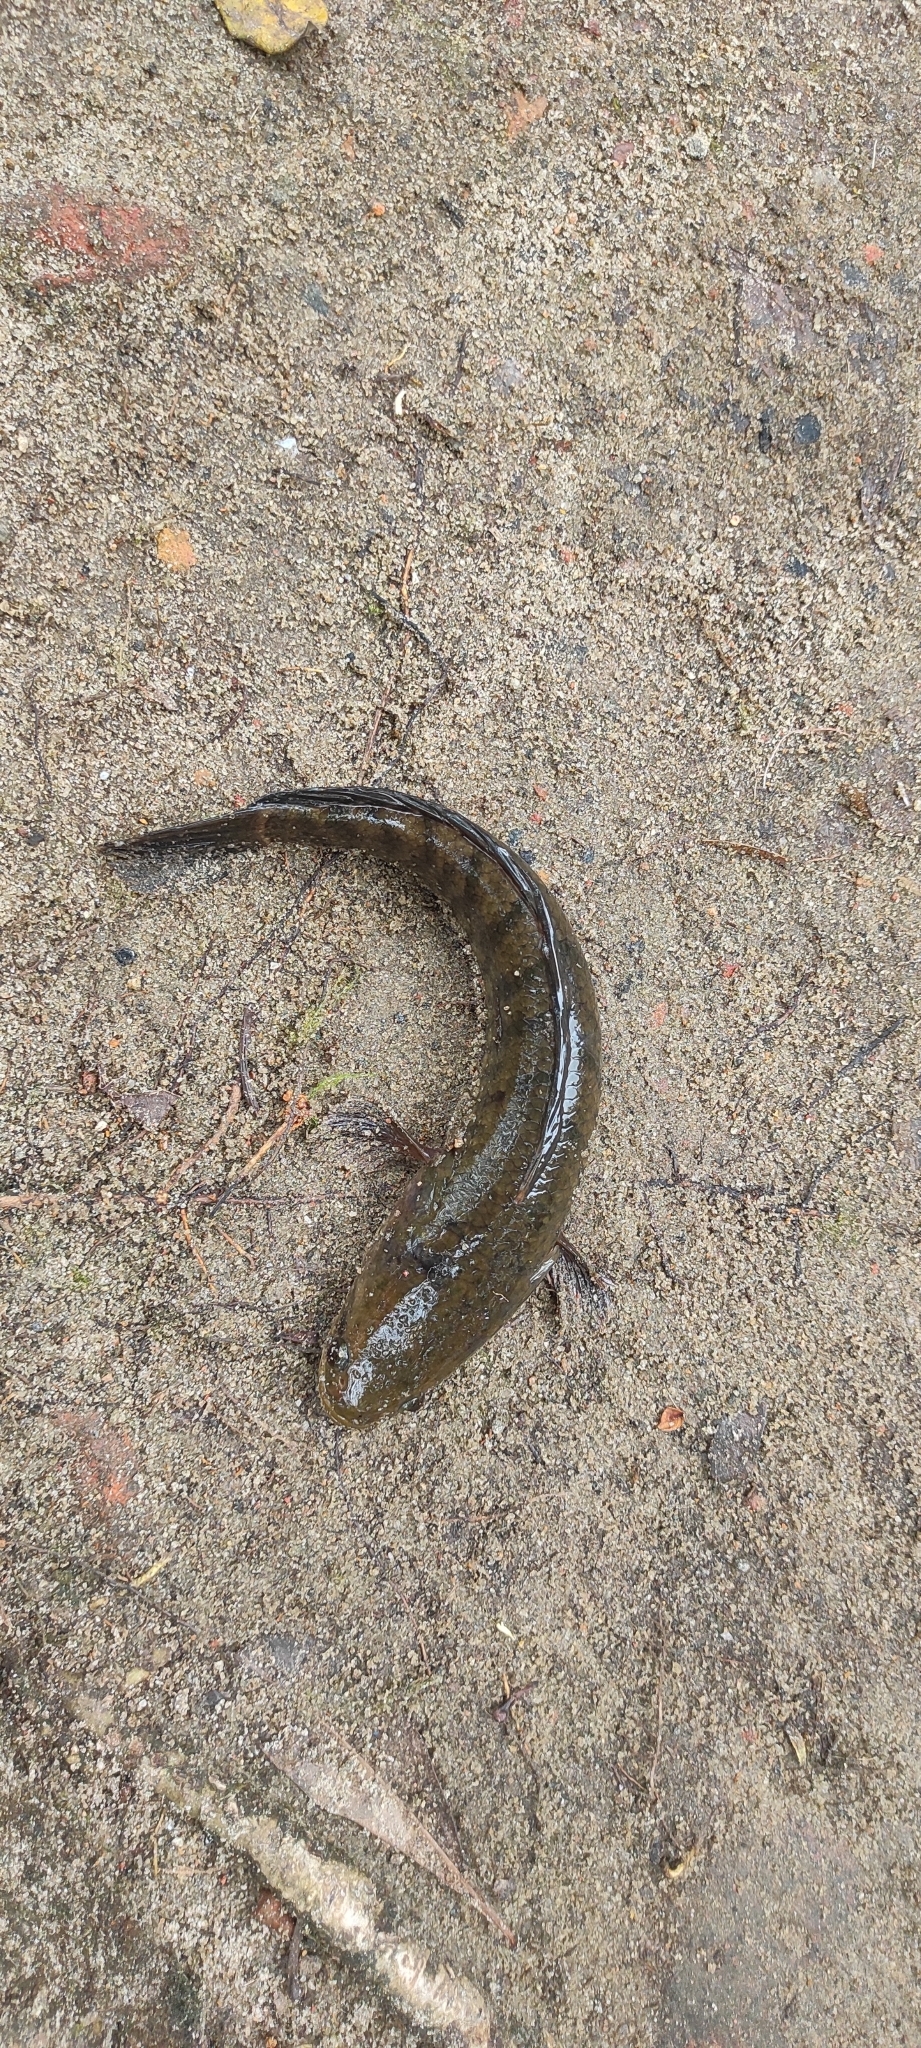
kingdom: Animalia
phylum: Chordata
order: Perciformes
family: Channidae
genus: Channa
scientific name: Channa striata
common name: Striped snakehead
